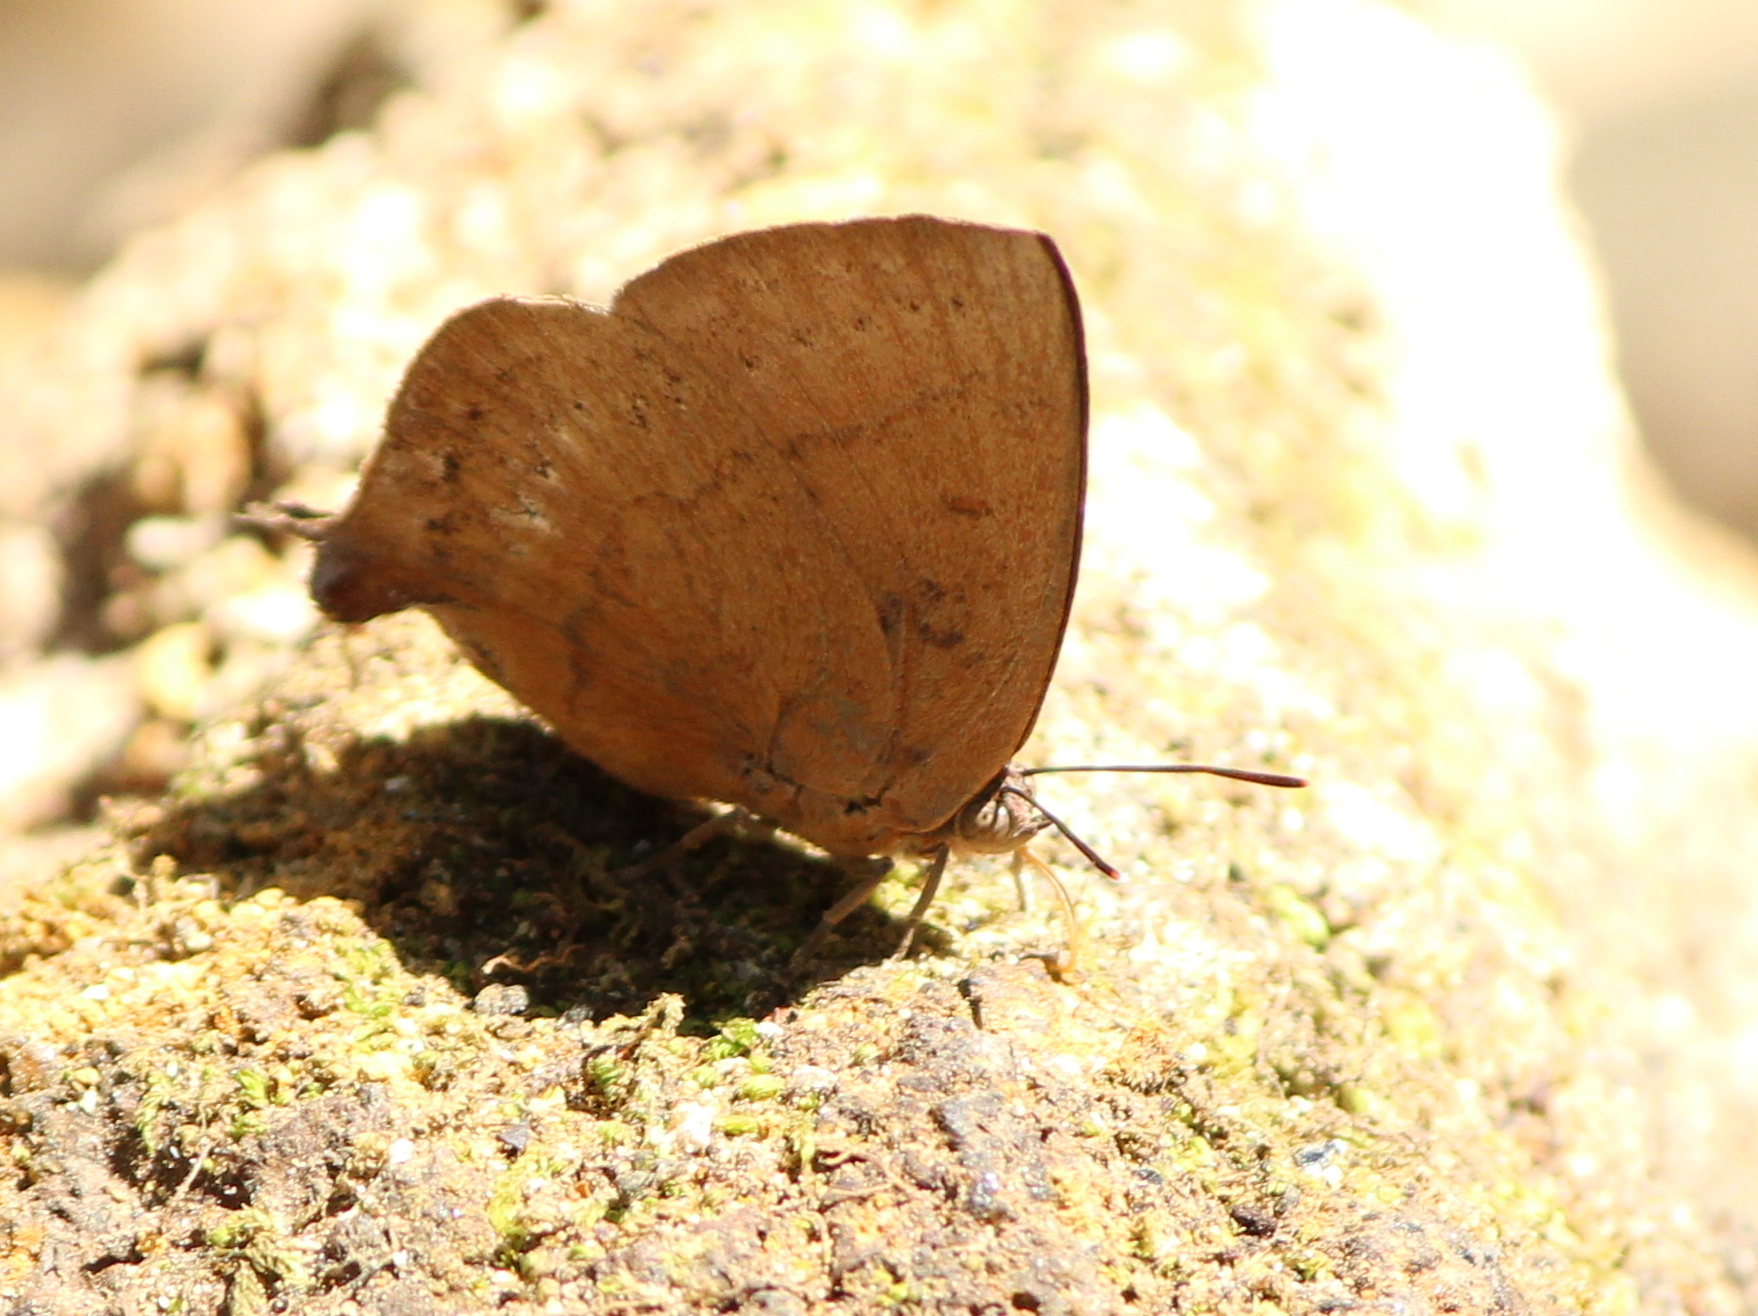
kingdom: Animalia
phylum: Arthropoda
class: Insecta
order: Lepidoptera
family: Lycaenidae
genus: Amblypodia
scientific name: Amblypodia anita
